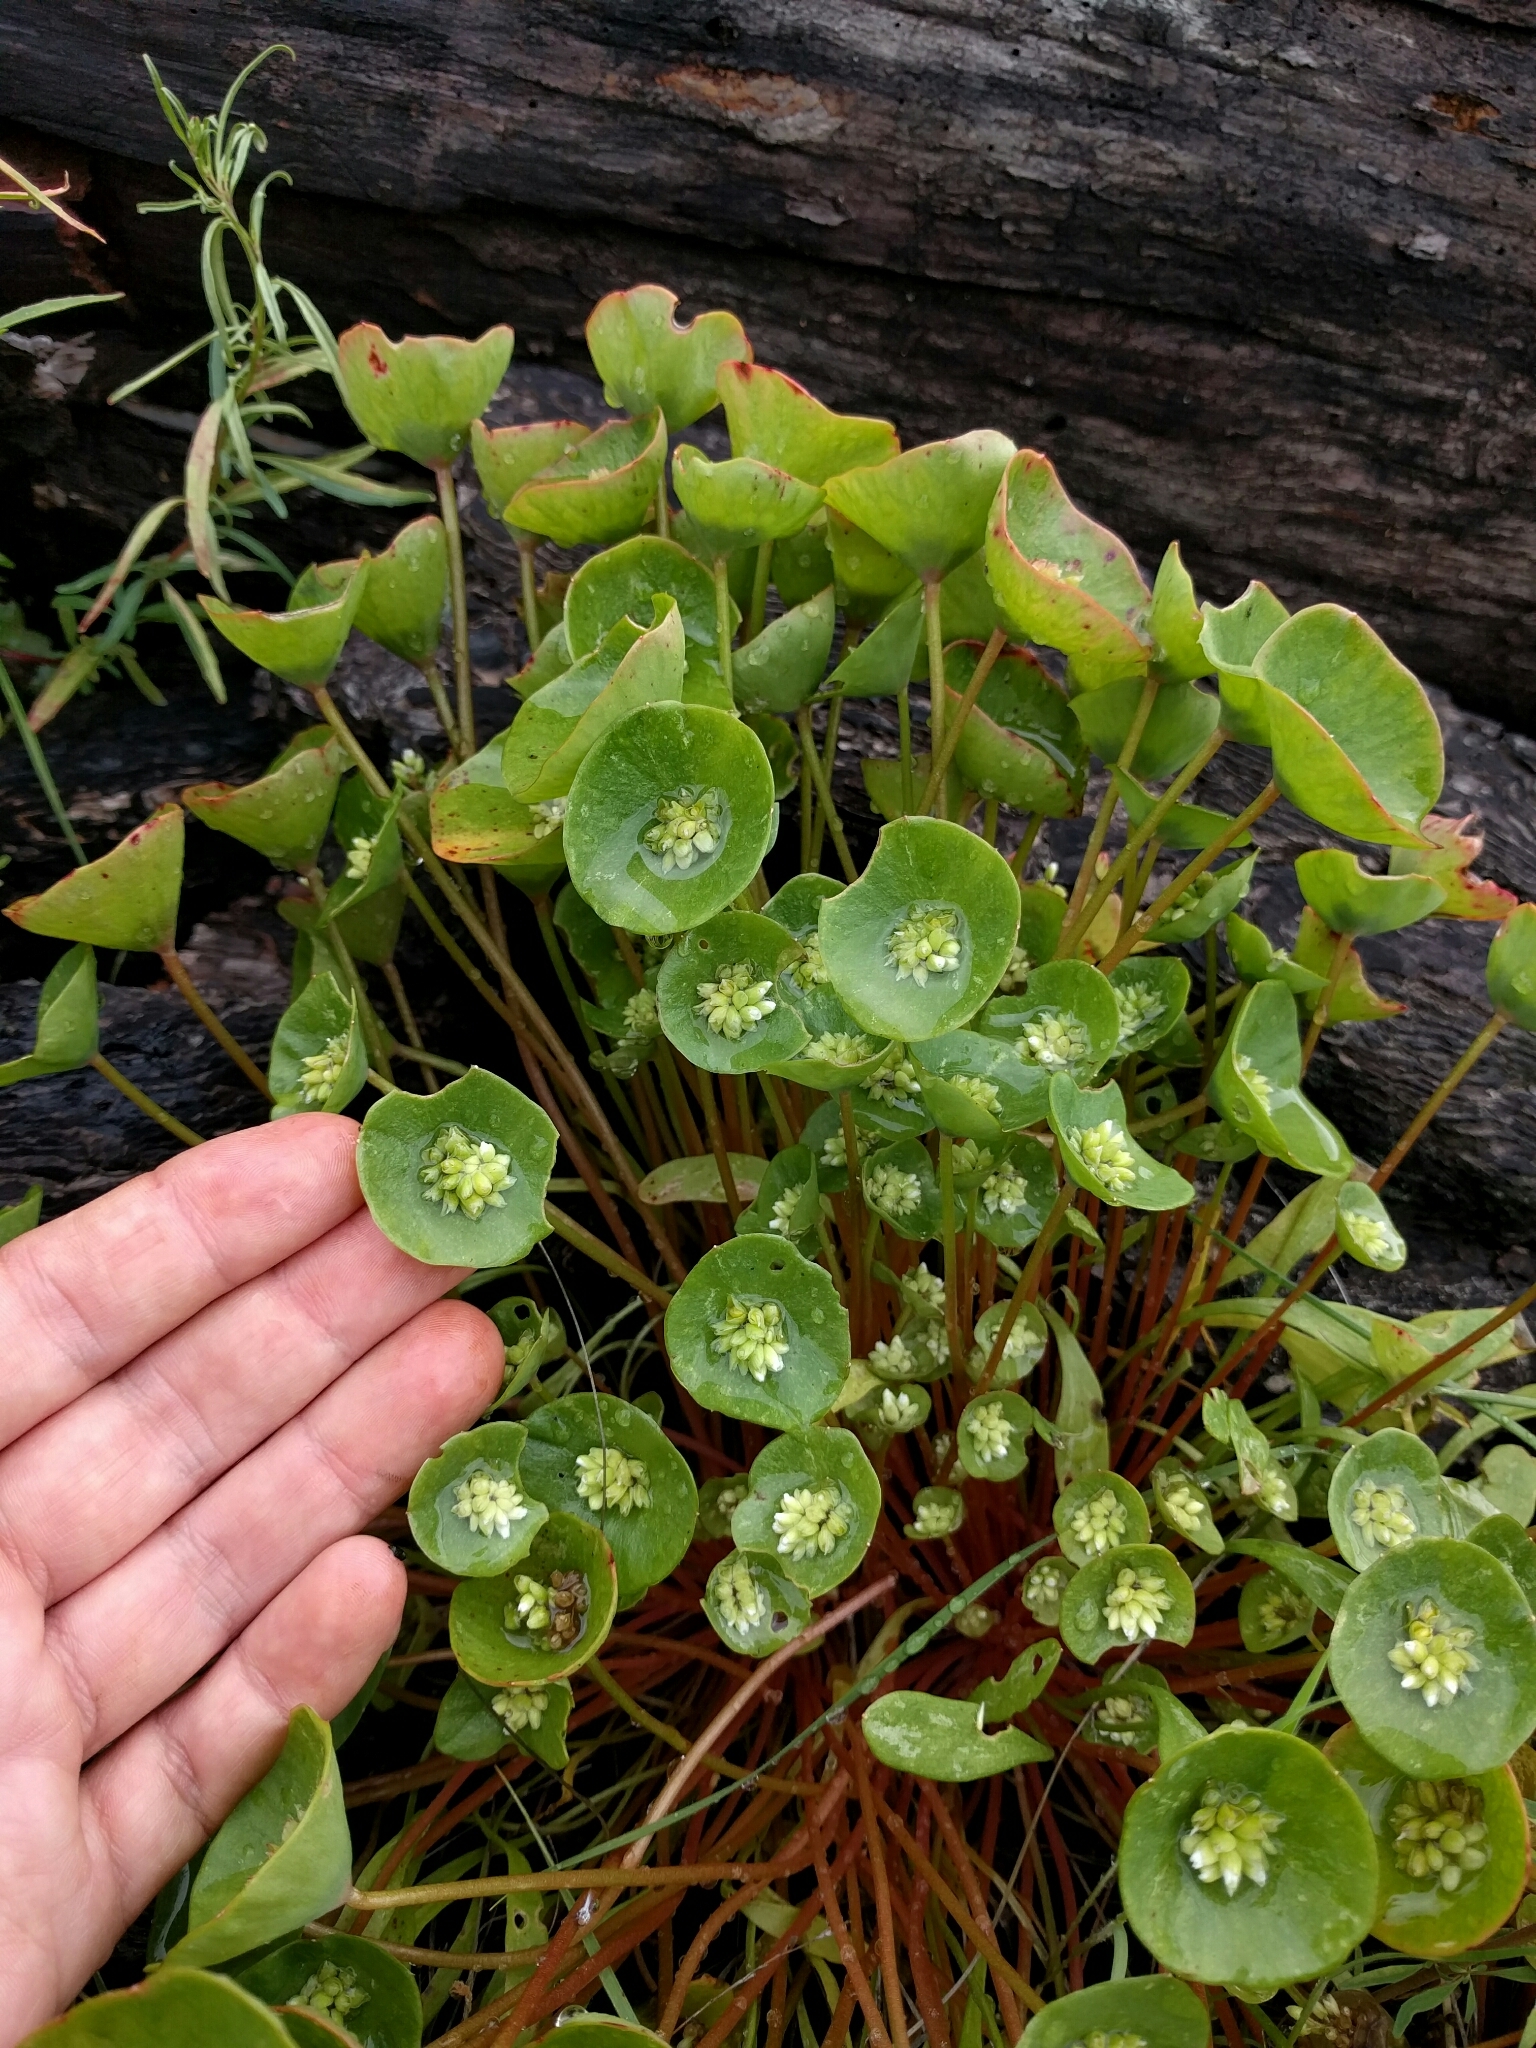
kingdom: Plantae
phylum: Tracheophyta
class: Magnoliopsida
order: Caryophyllales
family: Montiaceae
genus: Claytonia
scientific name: Claytonia perfoliata
